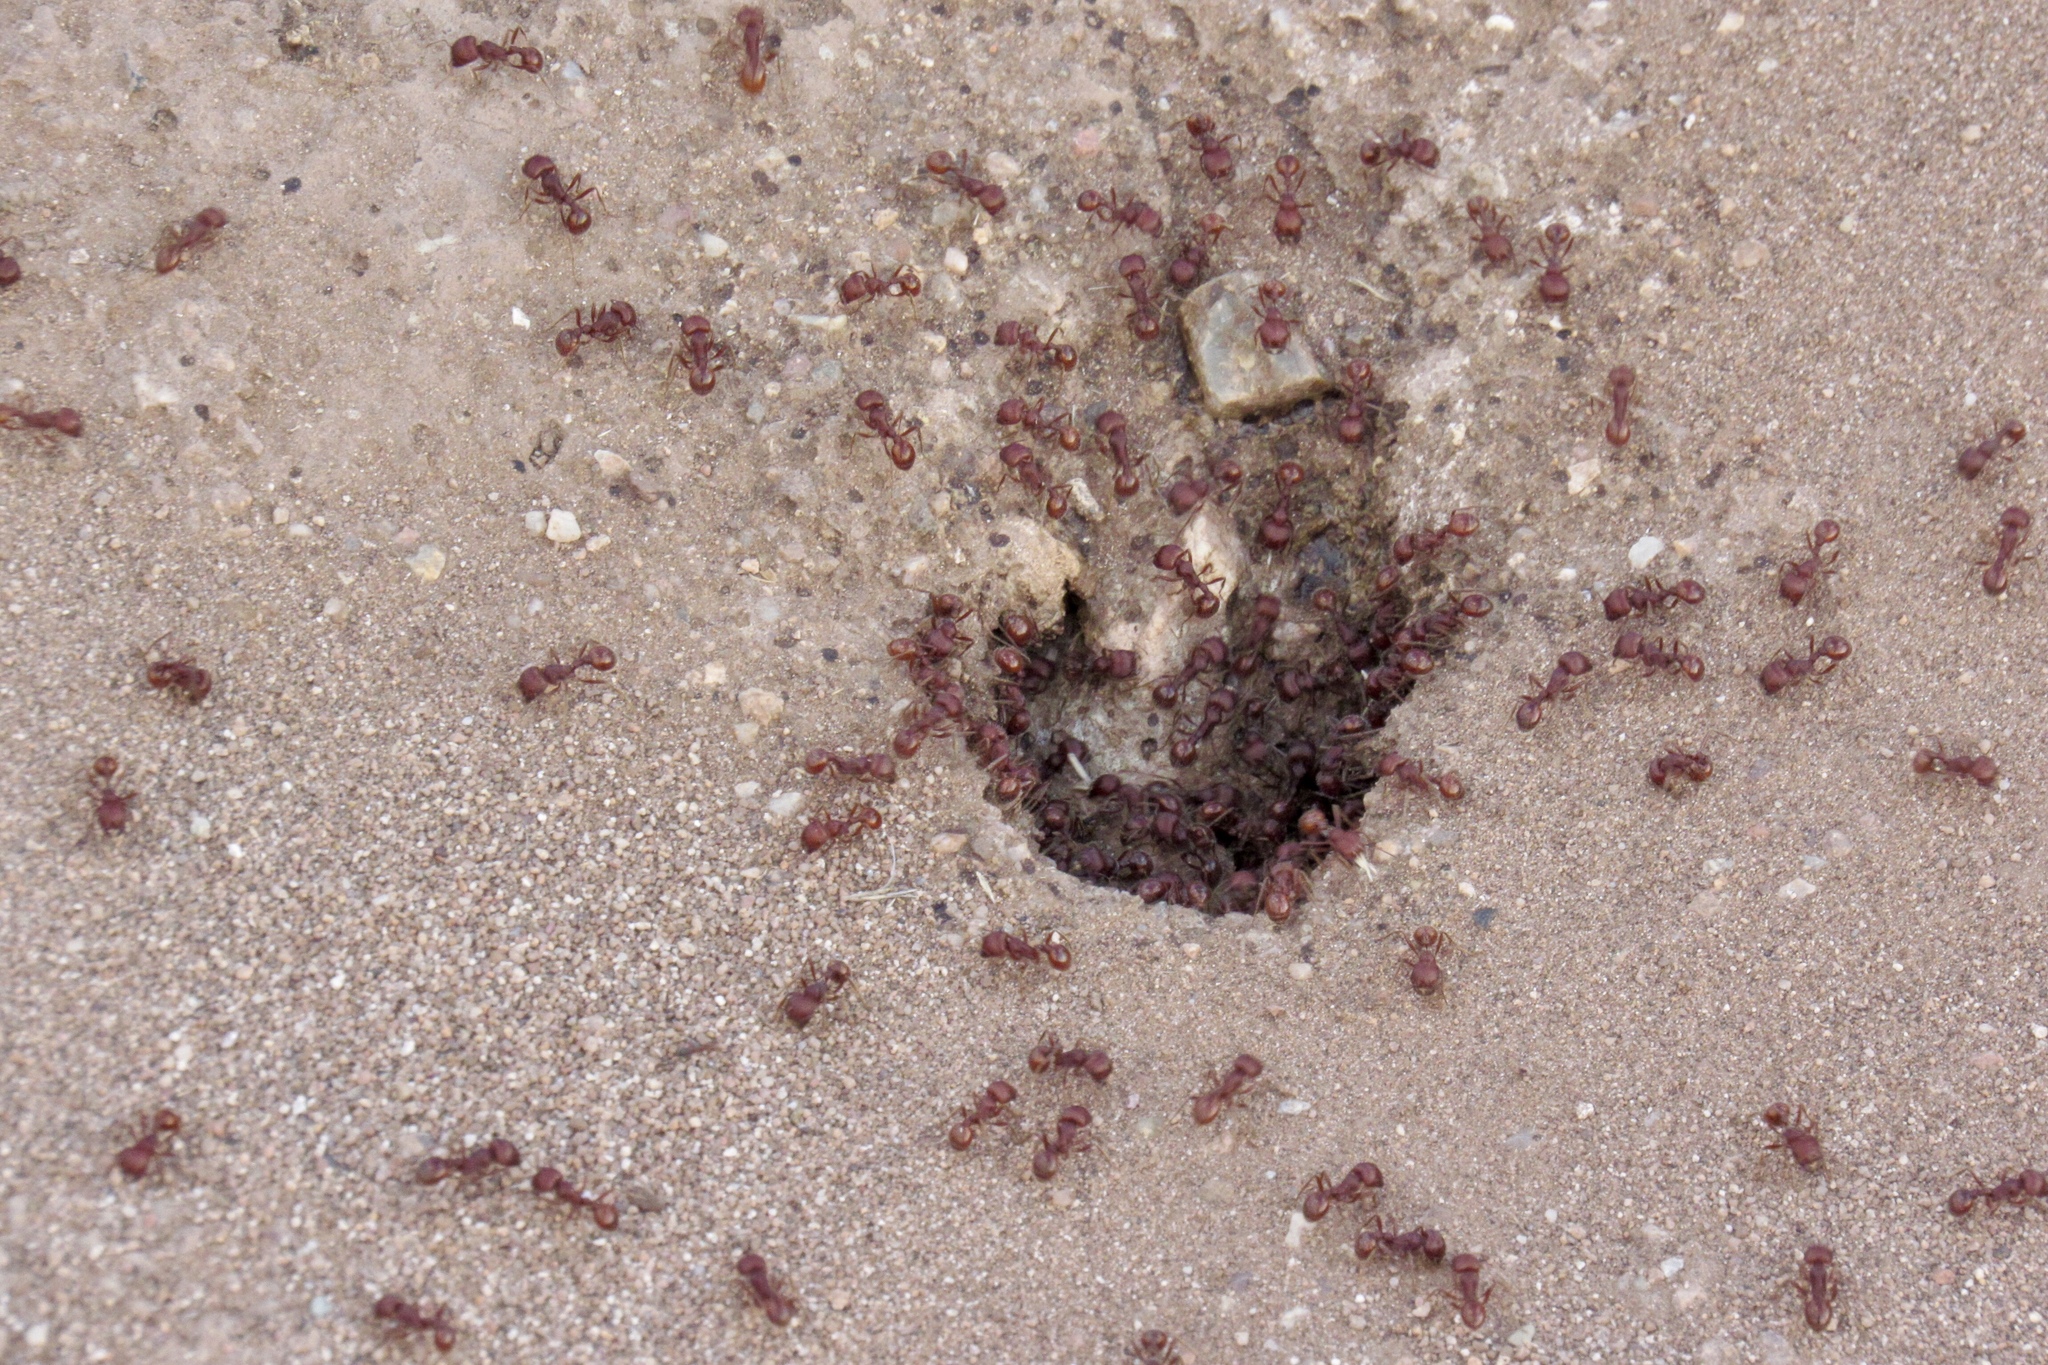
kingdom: Animalia
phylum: Arthropoda
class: Insecta
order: Hymenoptera
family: Formicidae
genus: Pogonomyrmex
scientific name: Pogonomyrmex barbatus
